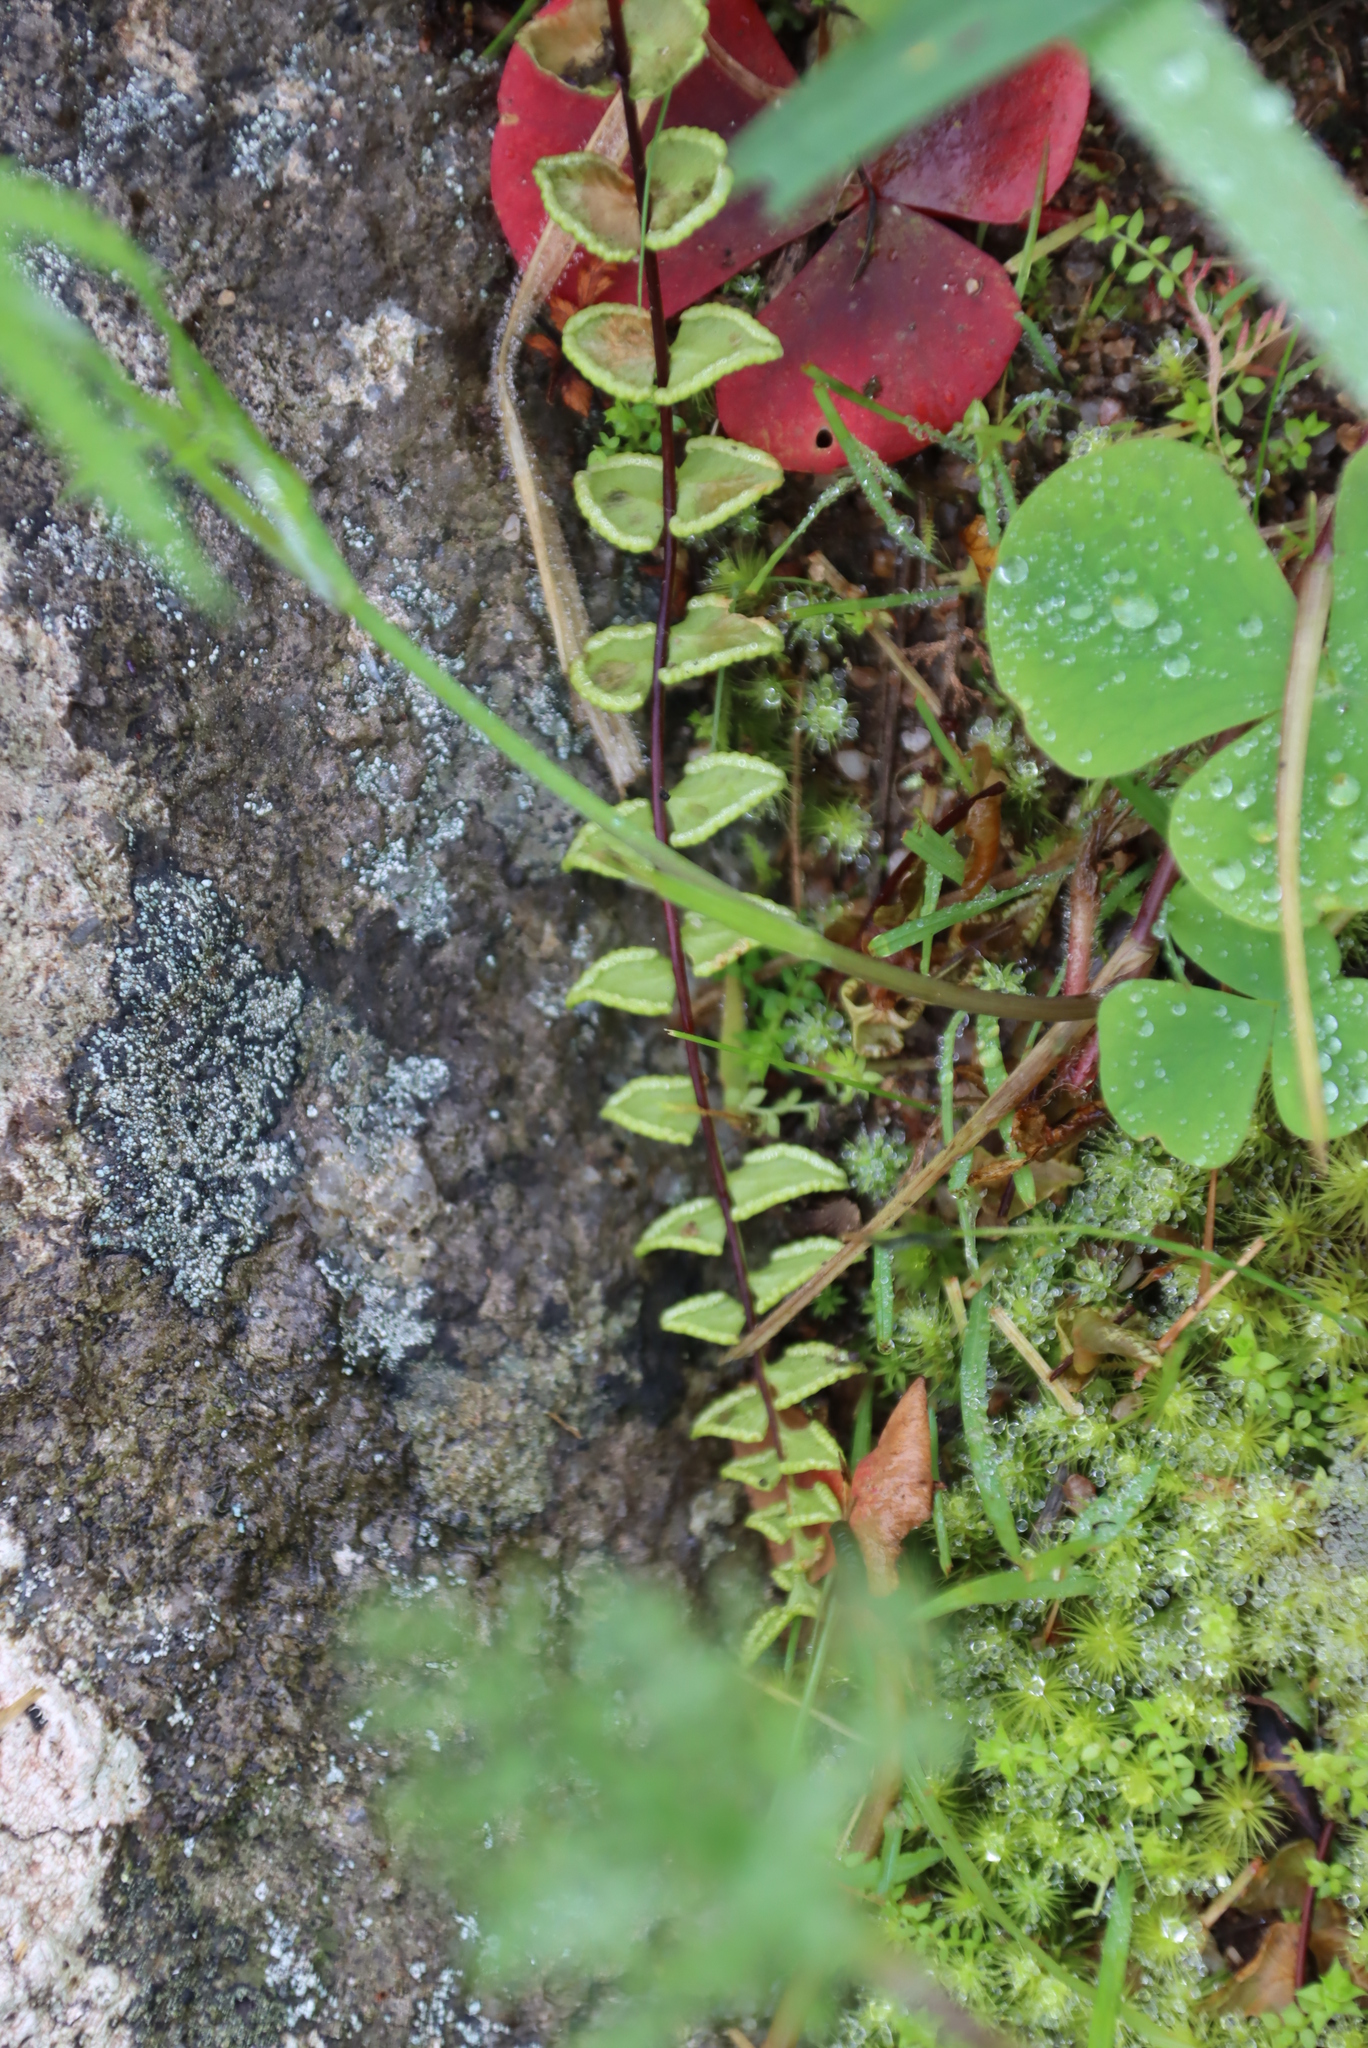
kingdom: Plantae
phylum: Tracheophyta
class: Polypodiopsida
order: Polypodiales
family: Pteridaceae
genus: Cheilanthes
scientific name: Cheilanthes hastata
